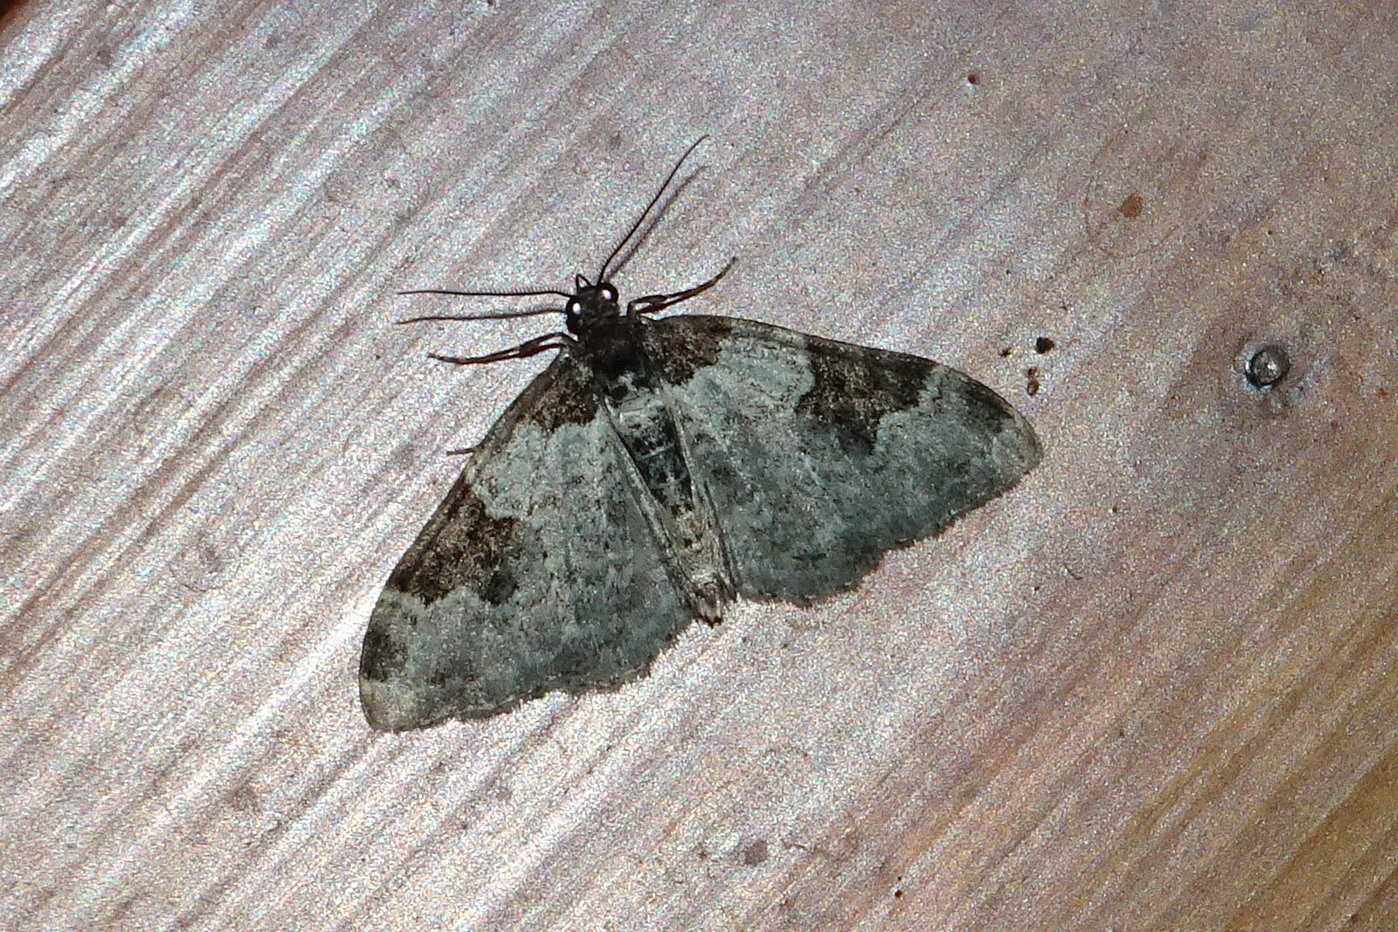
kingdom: Animalia
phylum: Arthropoda
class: Insecta
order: Lepidoptera
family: Geometridae
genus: Xanthorhoe
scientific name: Xanthorhoe fluctuata
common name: Garden carpet
